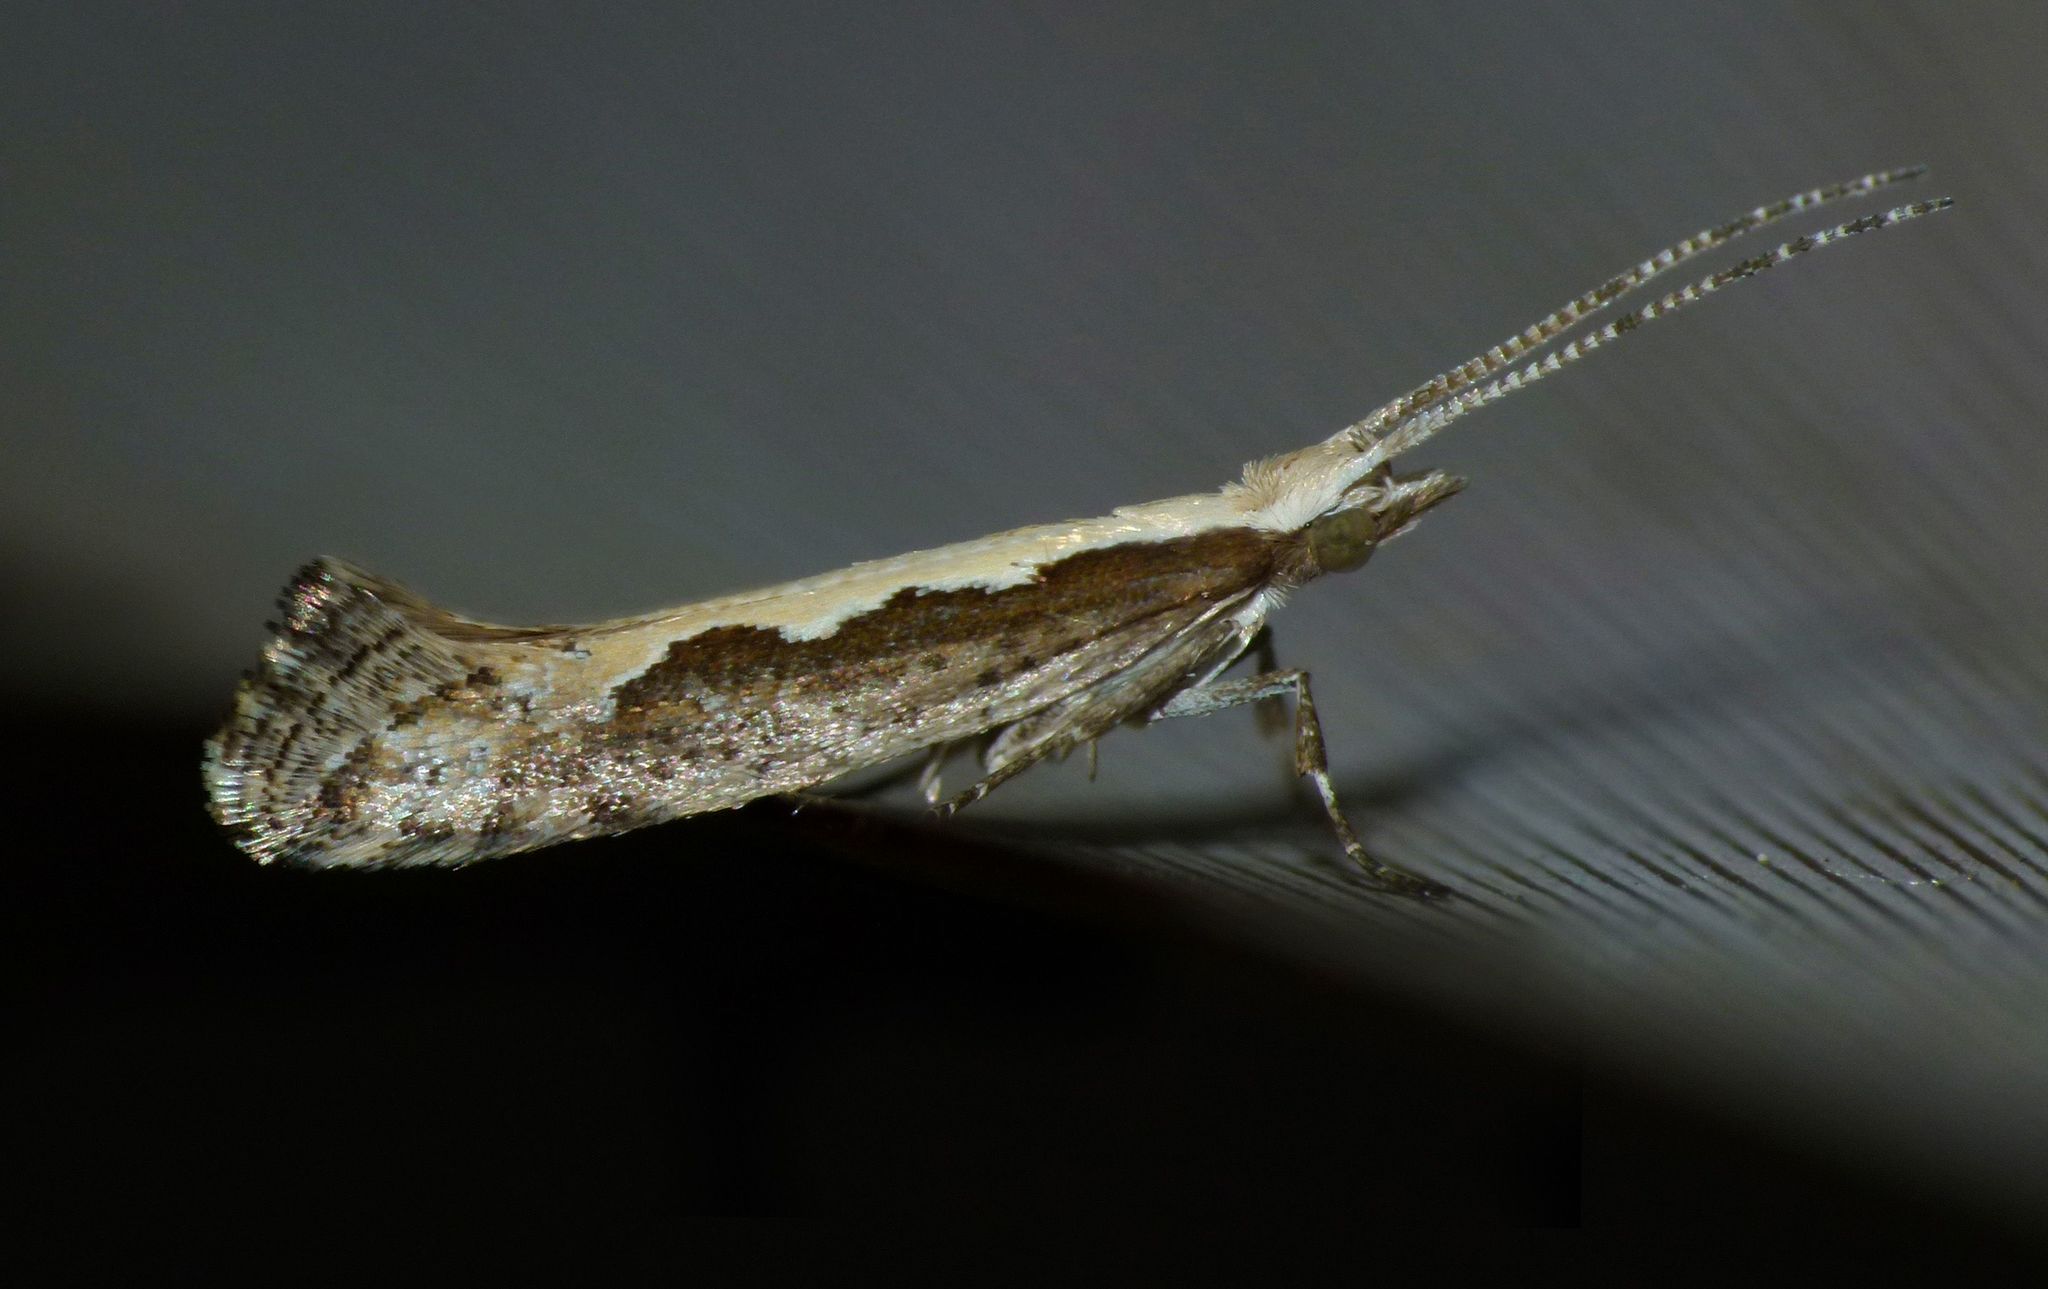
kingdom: Animalia
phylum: Arthropoda
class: Insecta
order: Lepidoptera
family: Plutellidae
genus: Plutella
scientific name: Plutella xylostella
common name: Diamond-back moth
